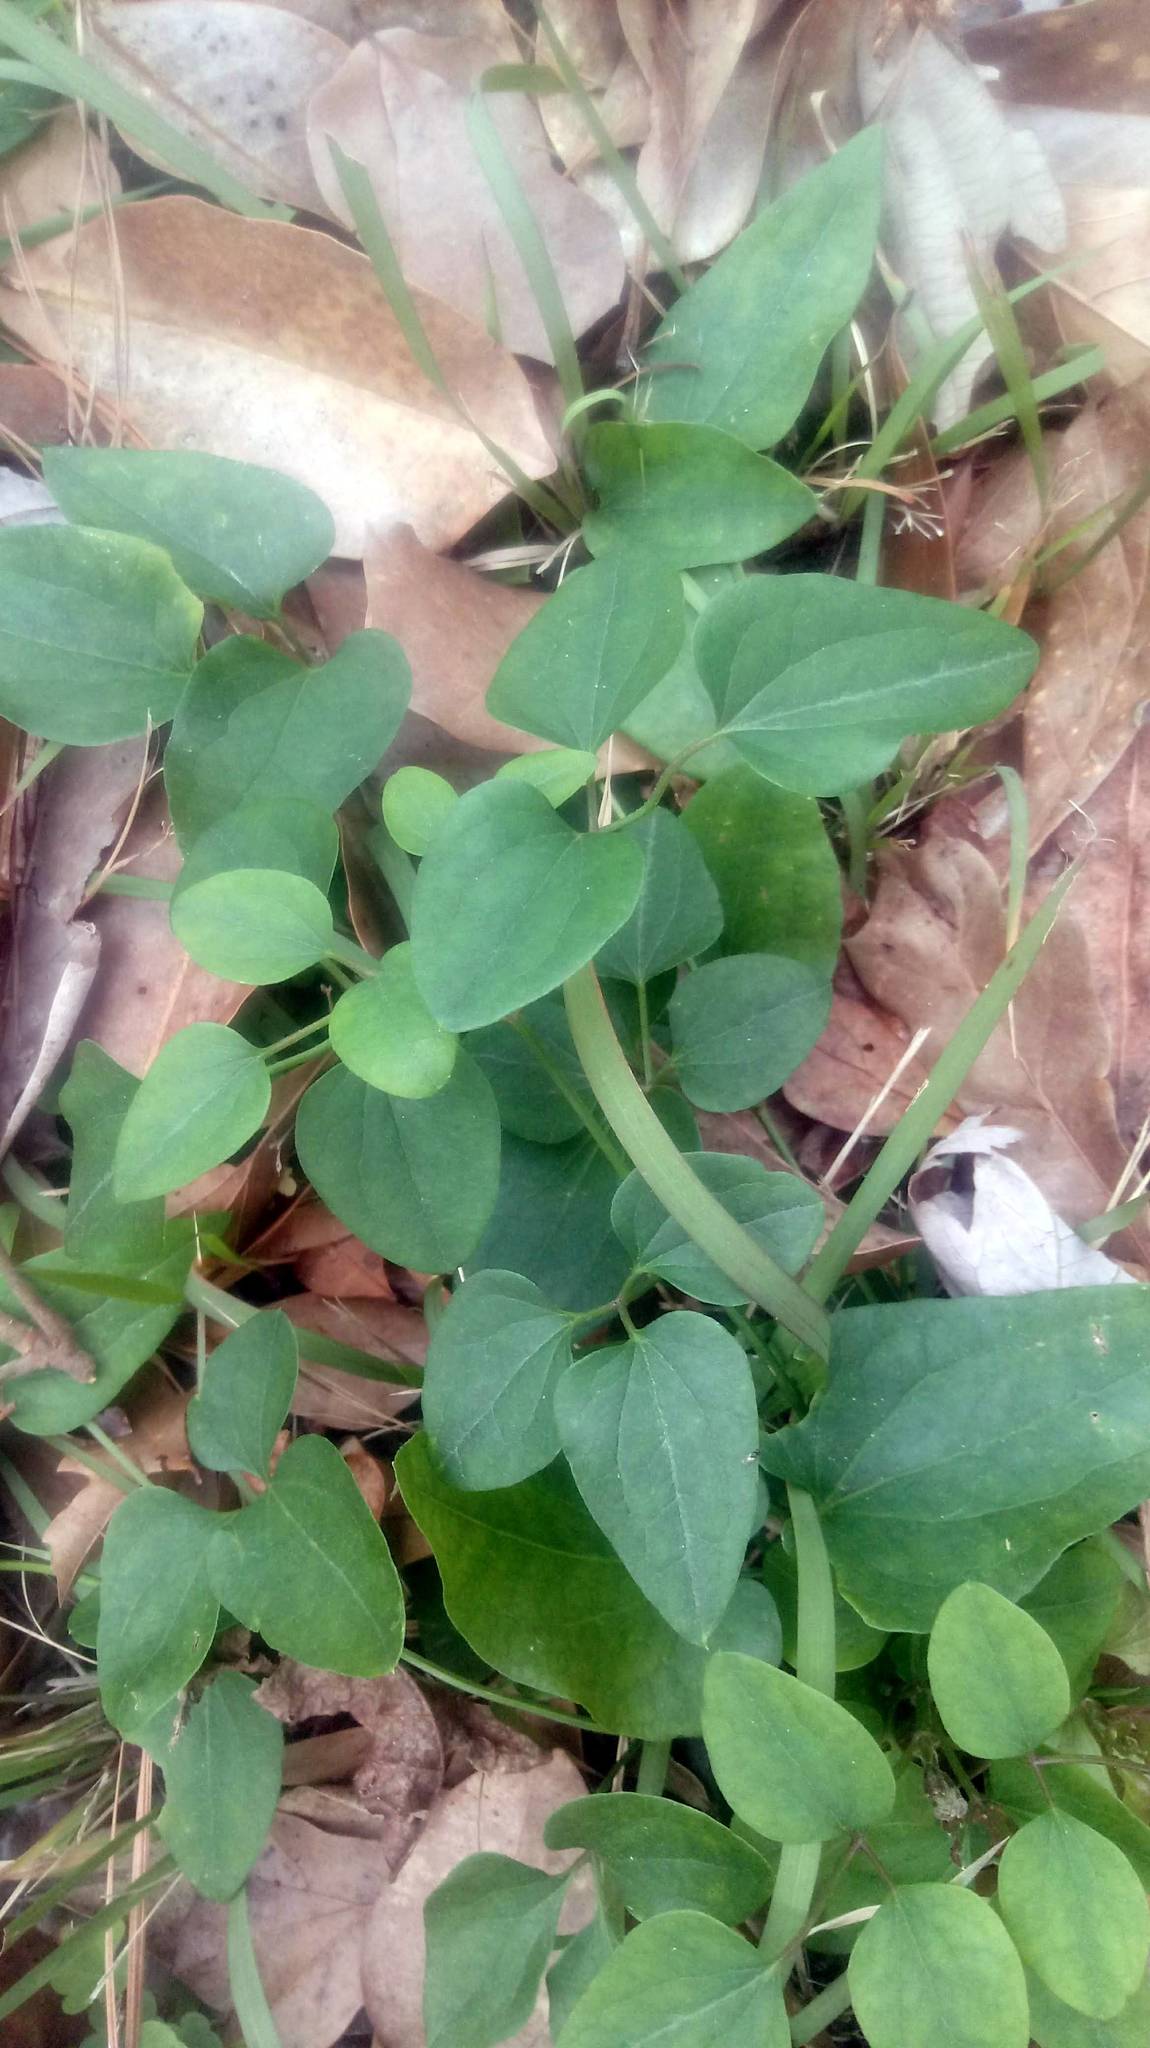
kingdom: Plantae
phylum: Tracheophyta
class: Magnoliopsida
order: Ranunculales
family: Ranunculaceae
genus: Clematis
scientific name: Clematis terniflora
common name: Sweet autumn clematis
